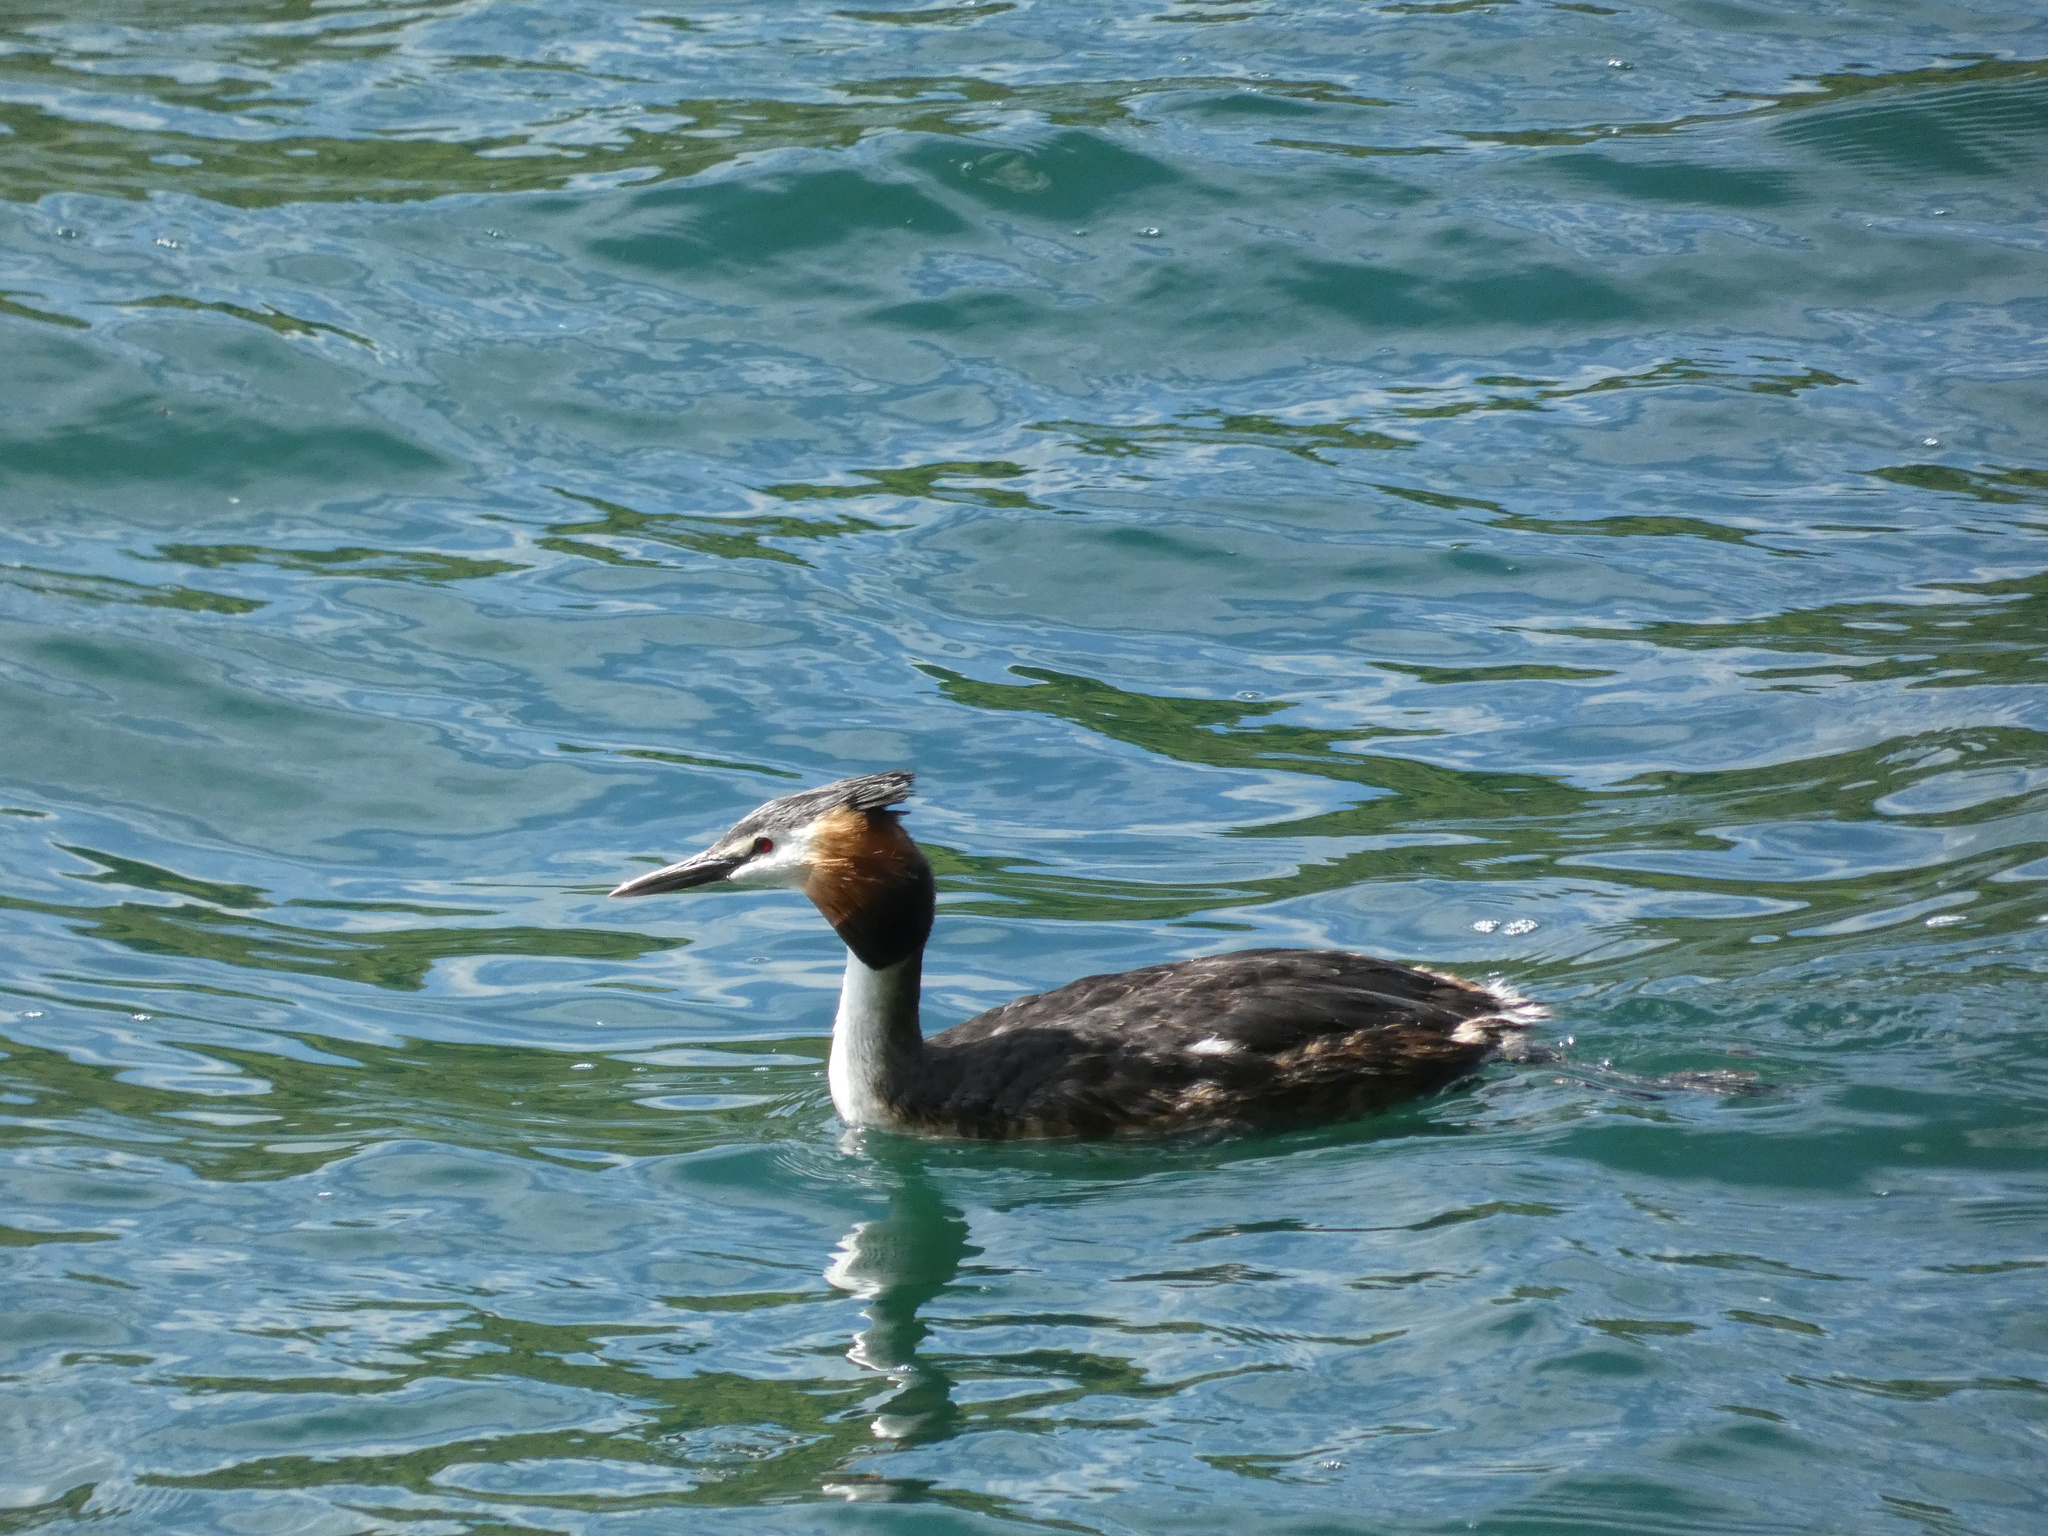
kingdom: Animalia
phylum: Chordata
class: Aves
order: Podicipediformes
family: Podicipedidae
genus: Podiceps
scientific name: Podiceps cristatus
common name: Great crested grebe
